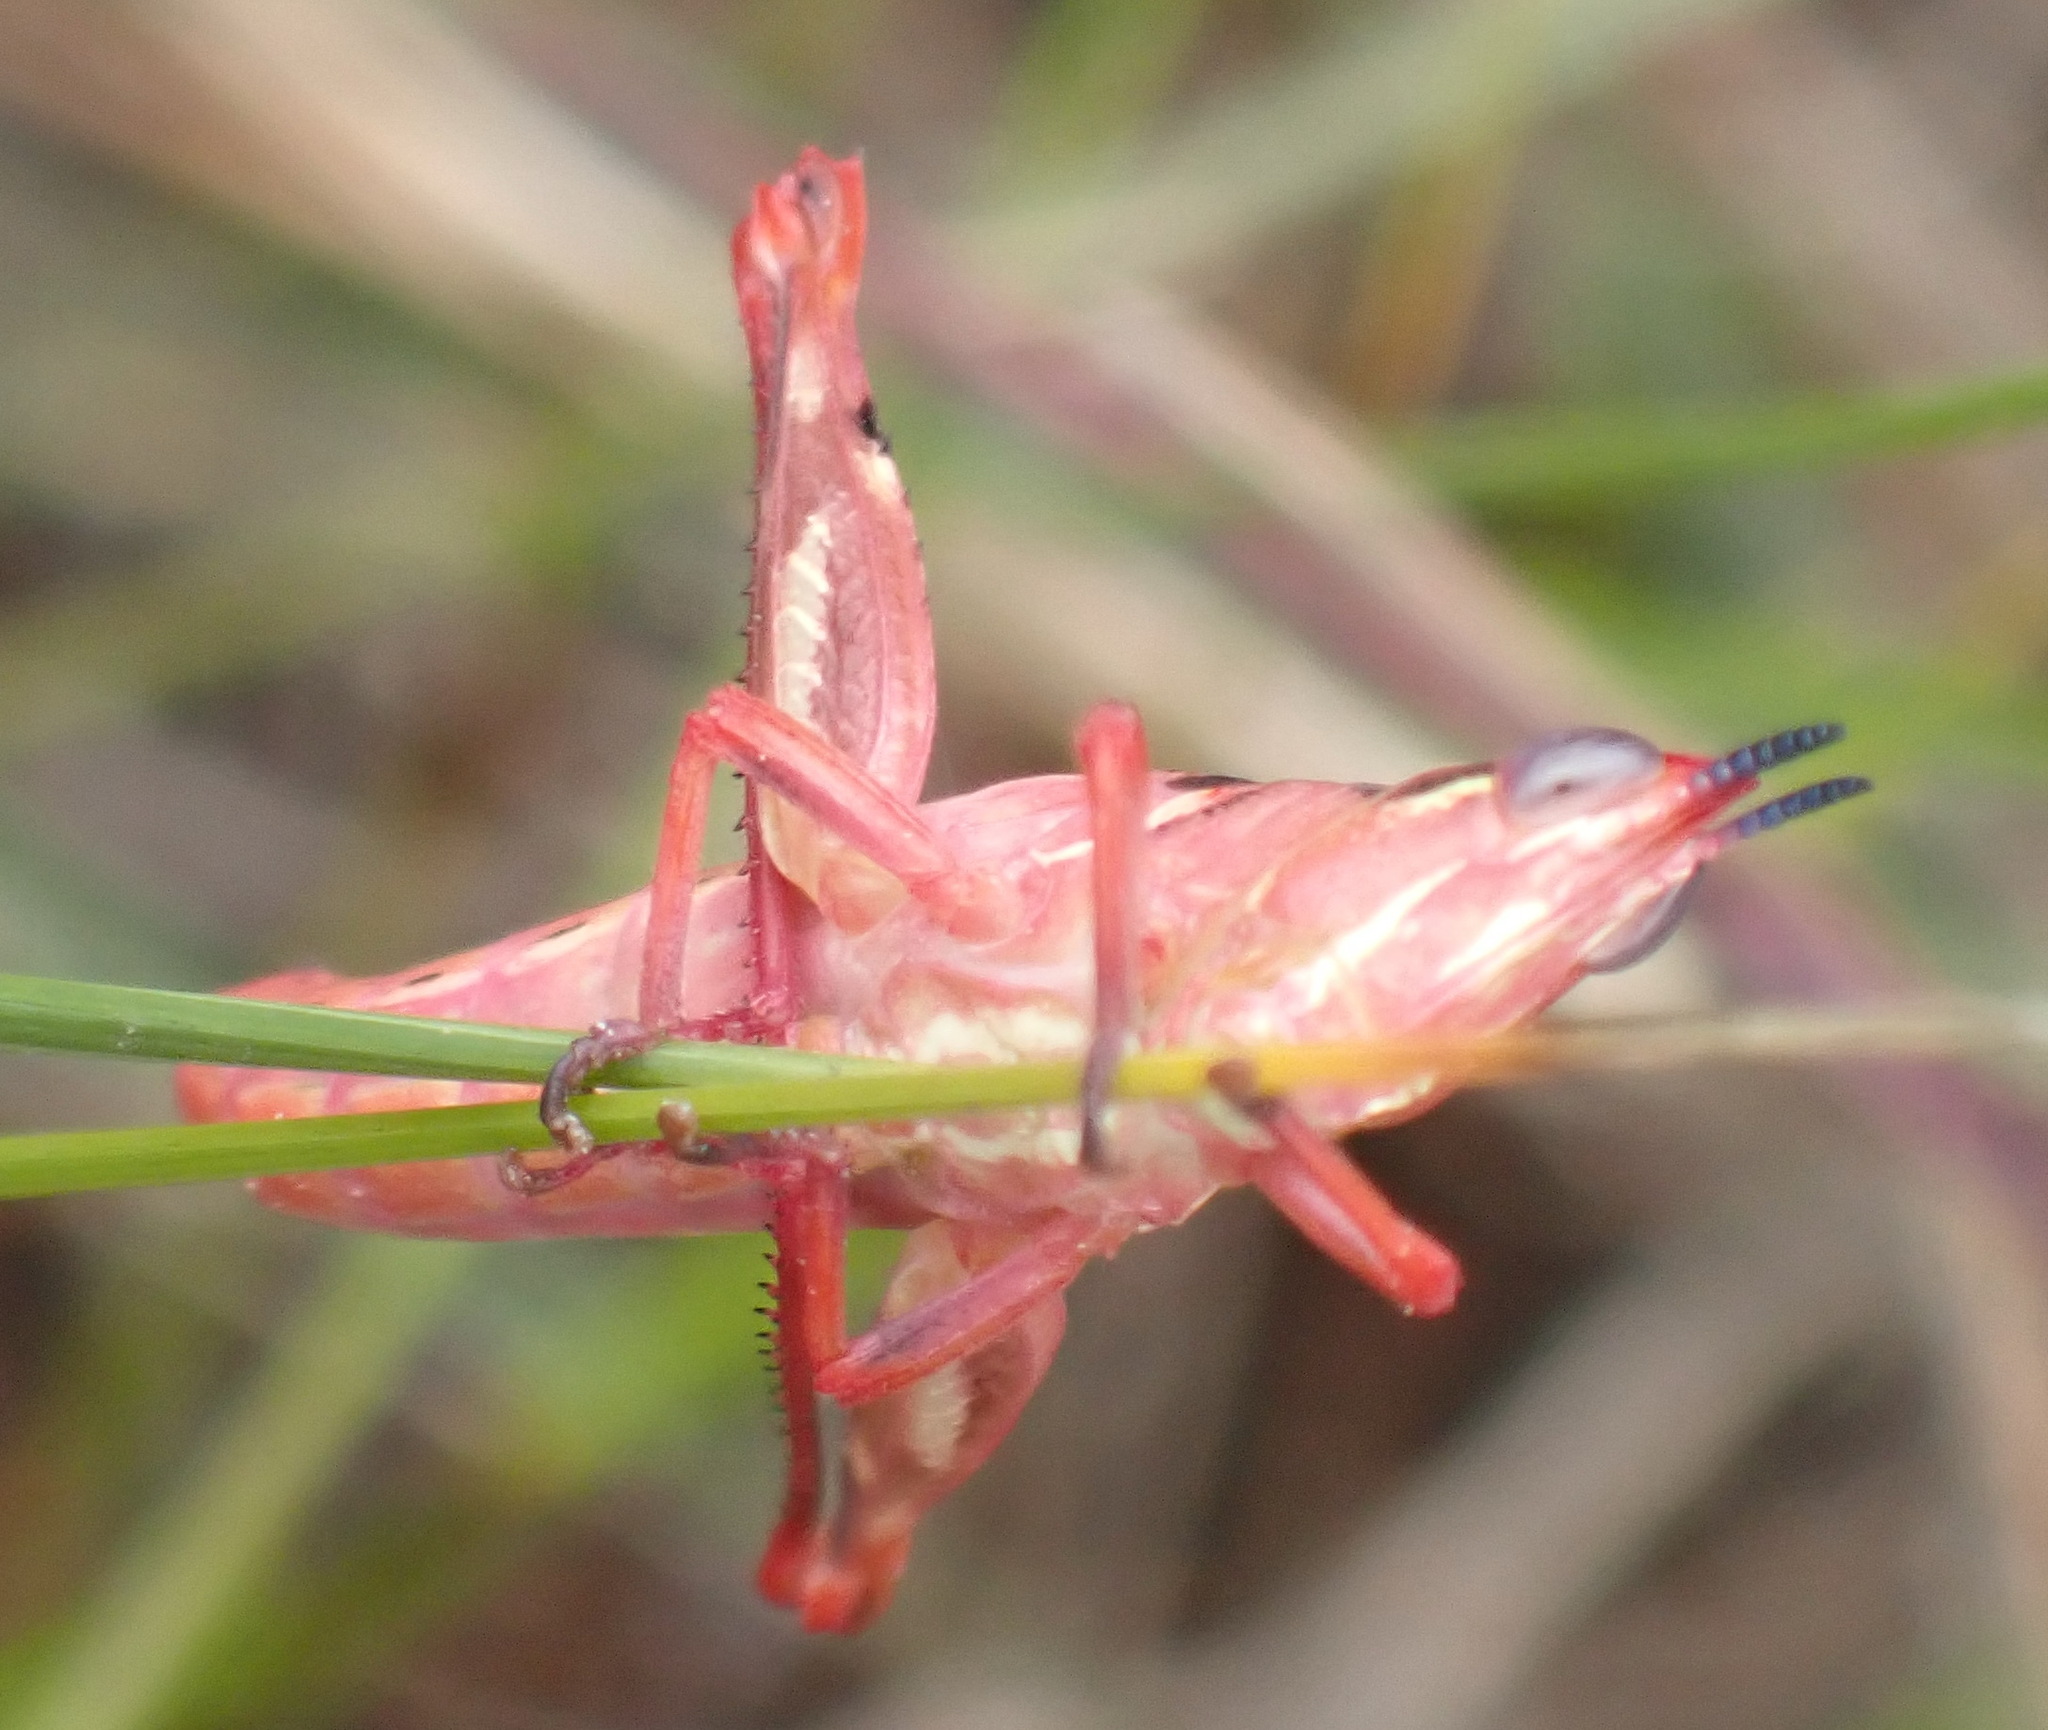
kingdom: Animalia
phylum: Arthropoda
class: Insecta
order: Orthoptera
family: Thericleidae
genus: Thericlesiella
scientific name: Thericlesiella meridionalis
